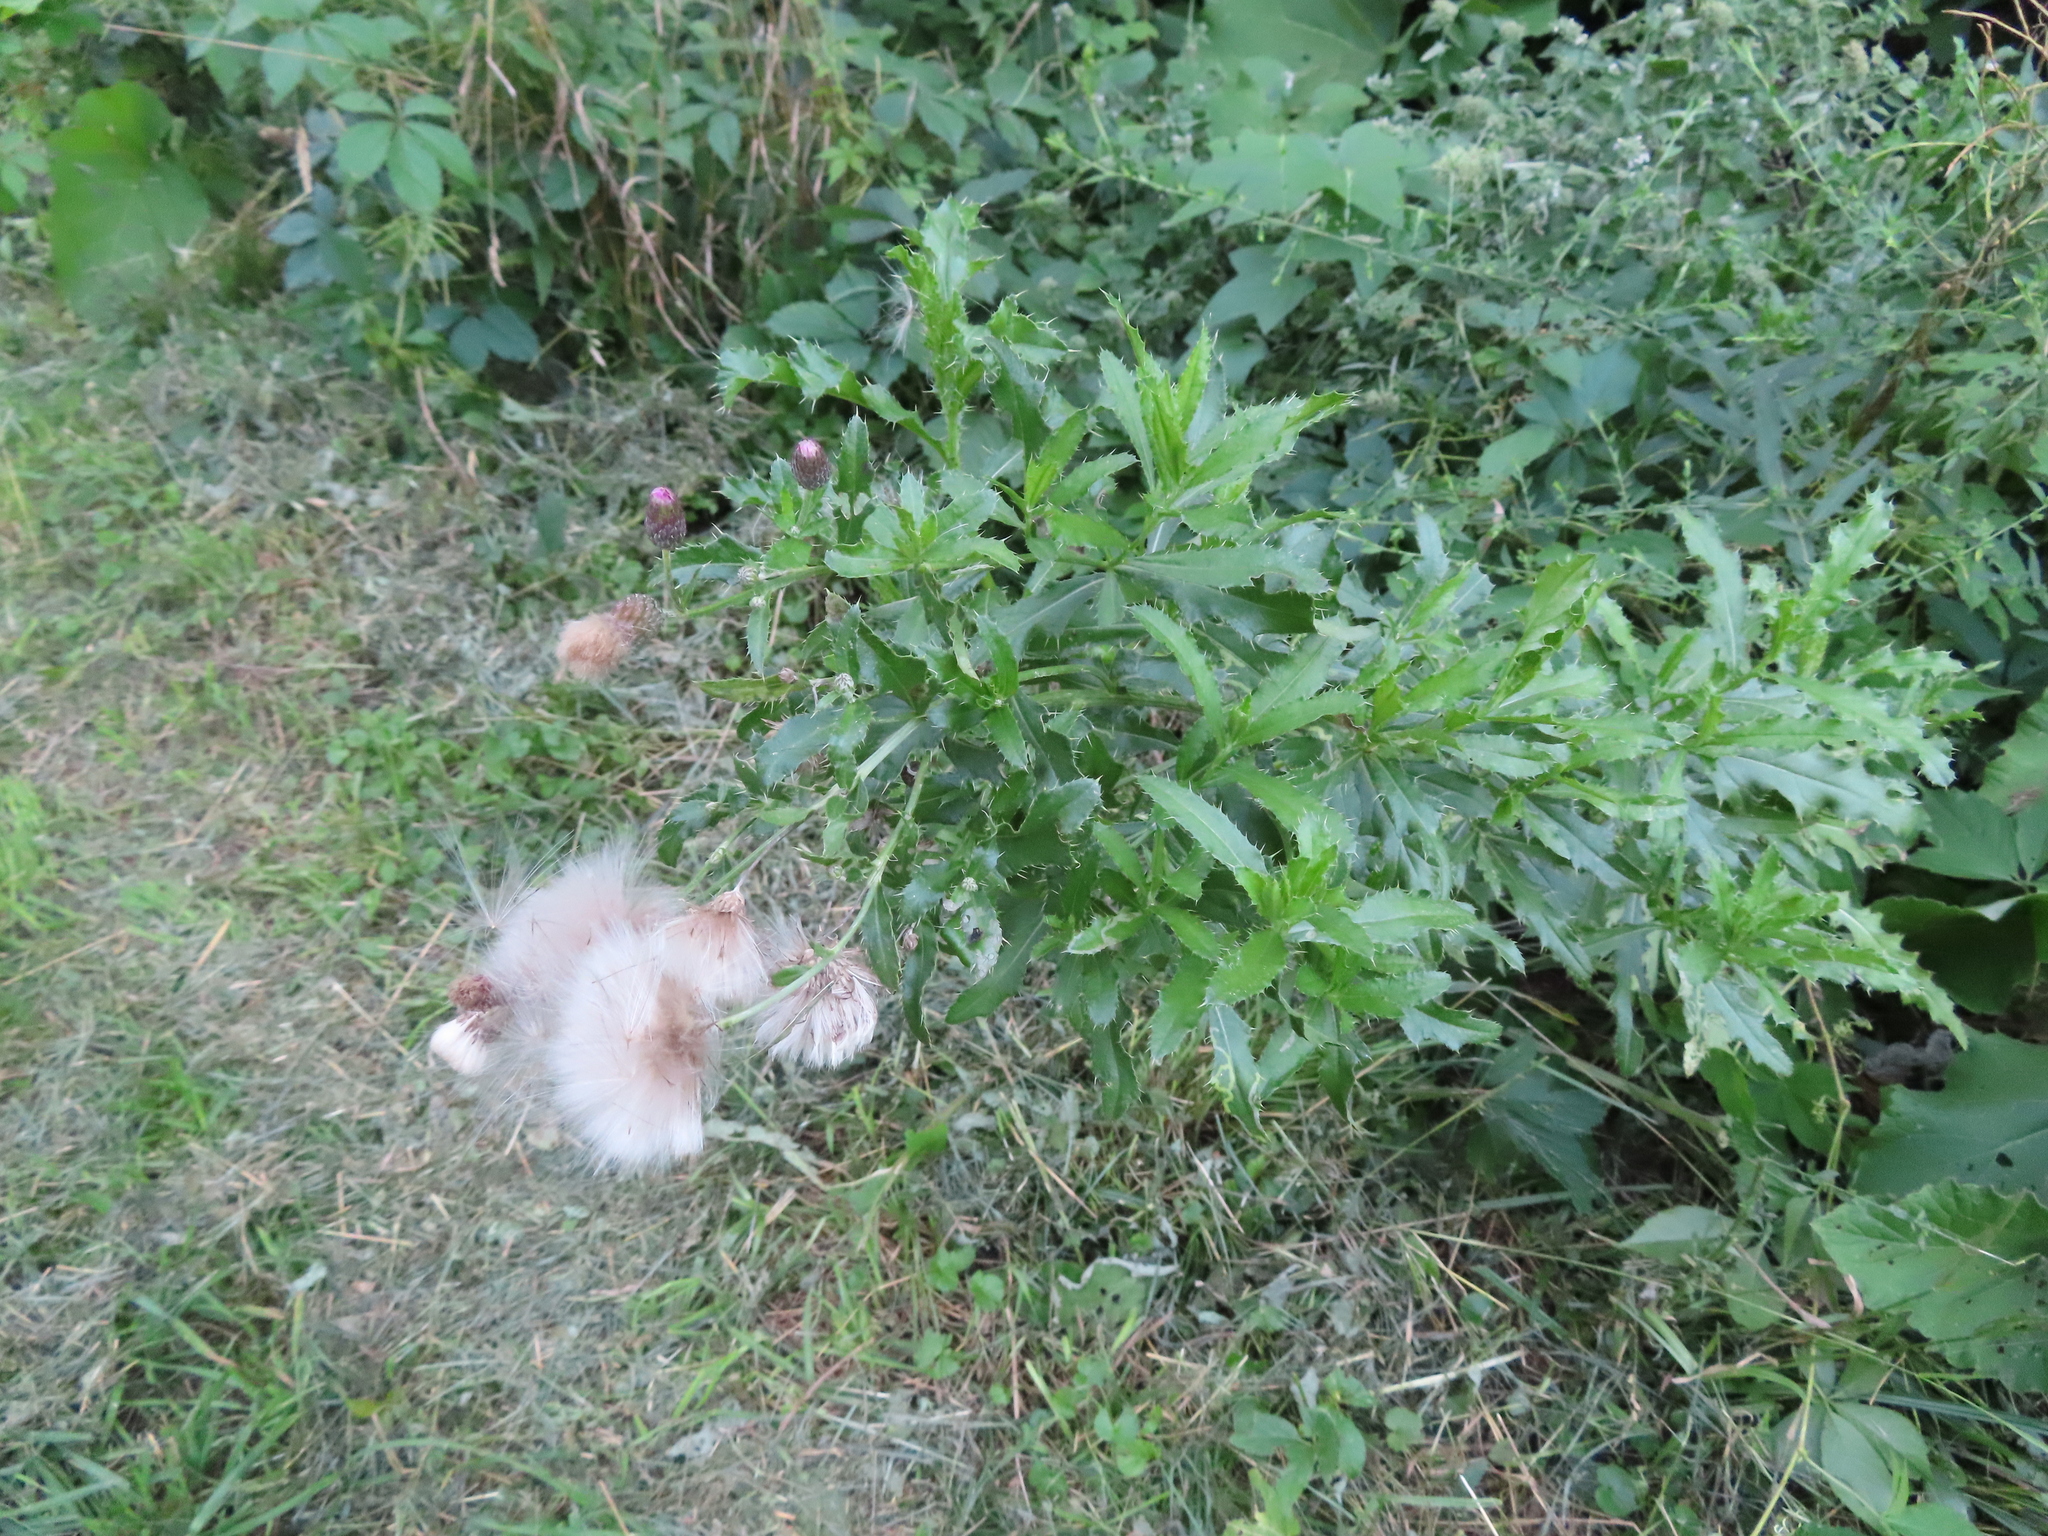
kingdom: Plantae
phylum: Tracheophyta
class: Magnoliopsida
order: Asterales
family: Asteraceae
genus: Cirsium
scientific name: Cirsium arvense
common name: Creeping thistle
